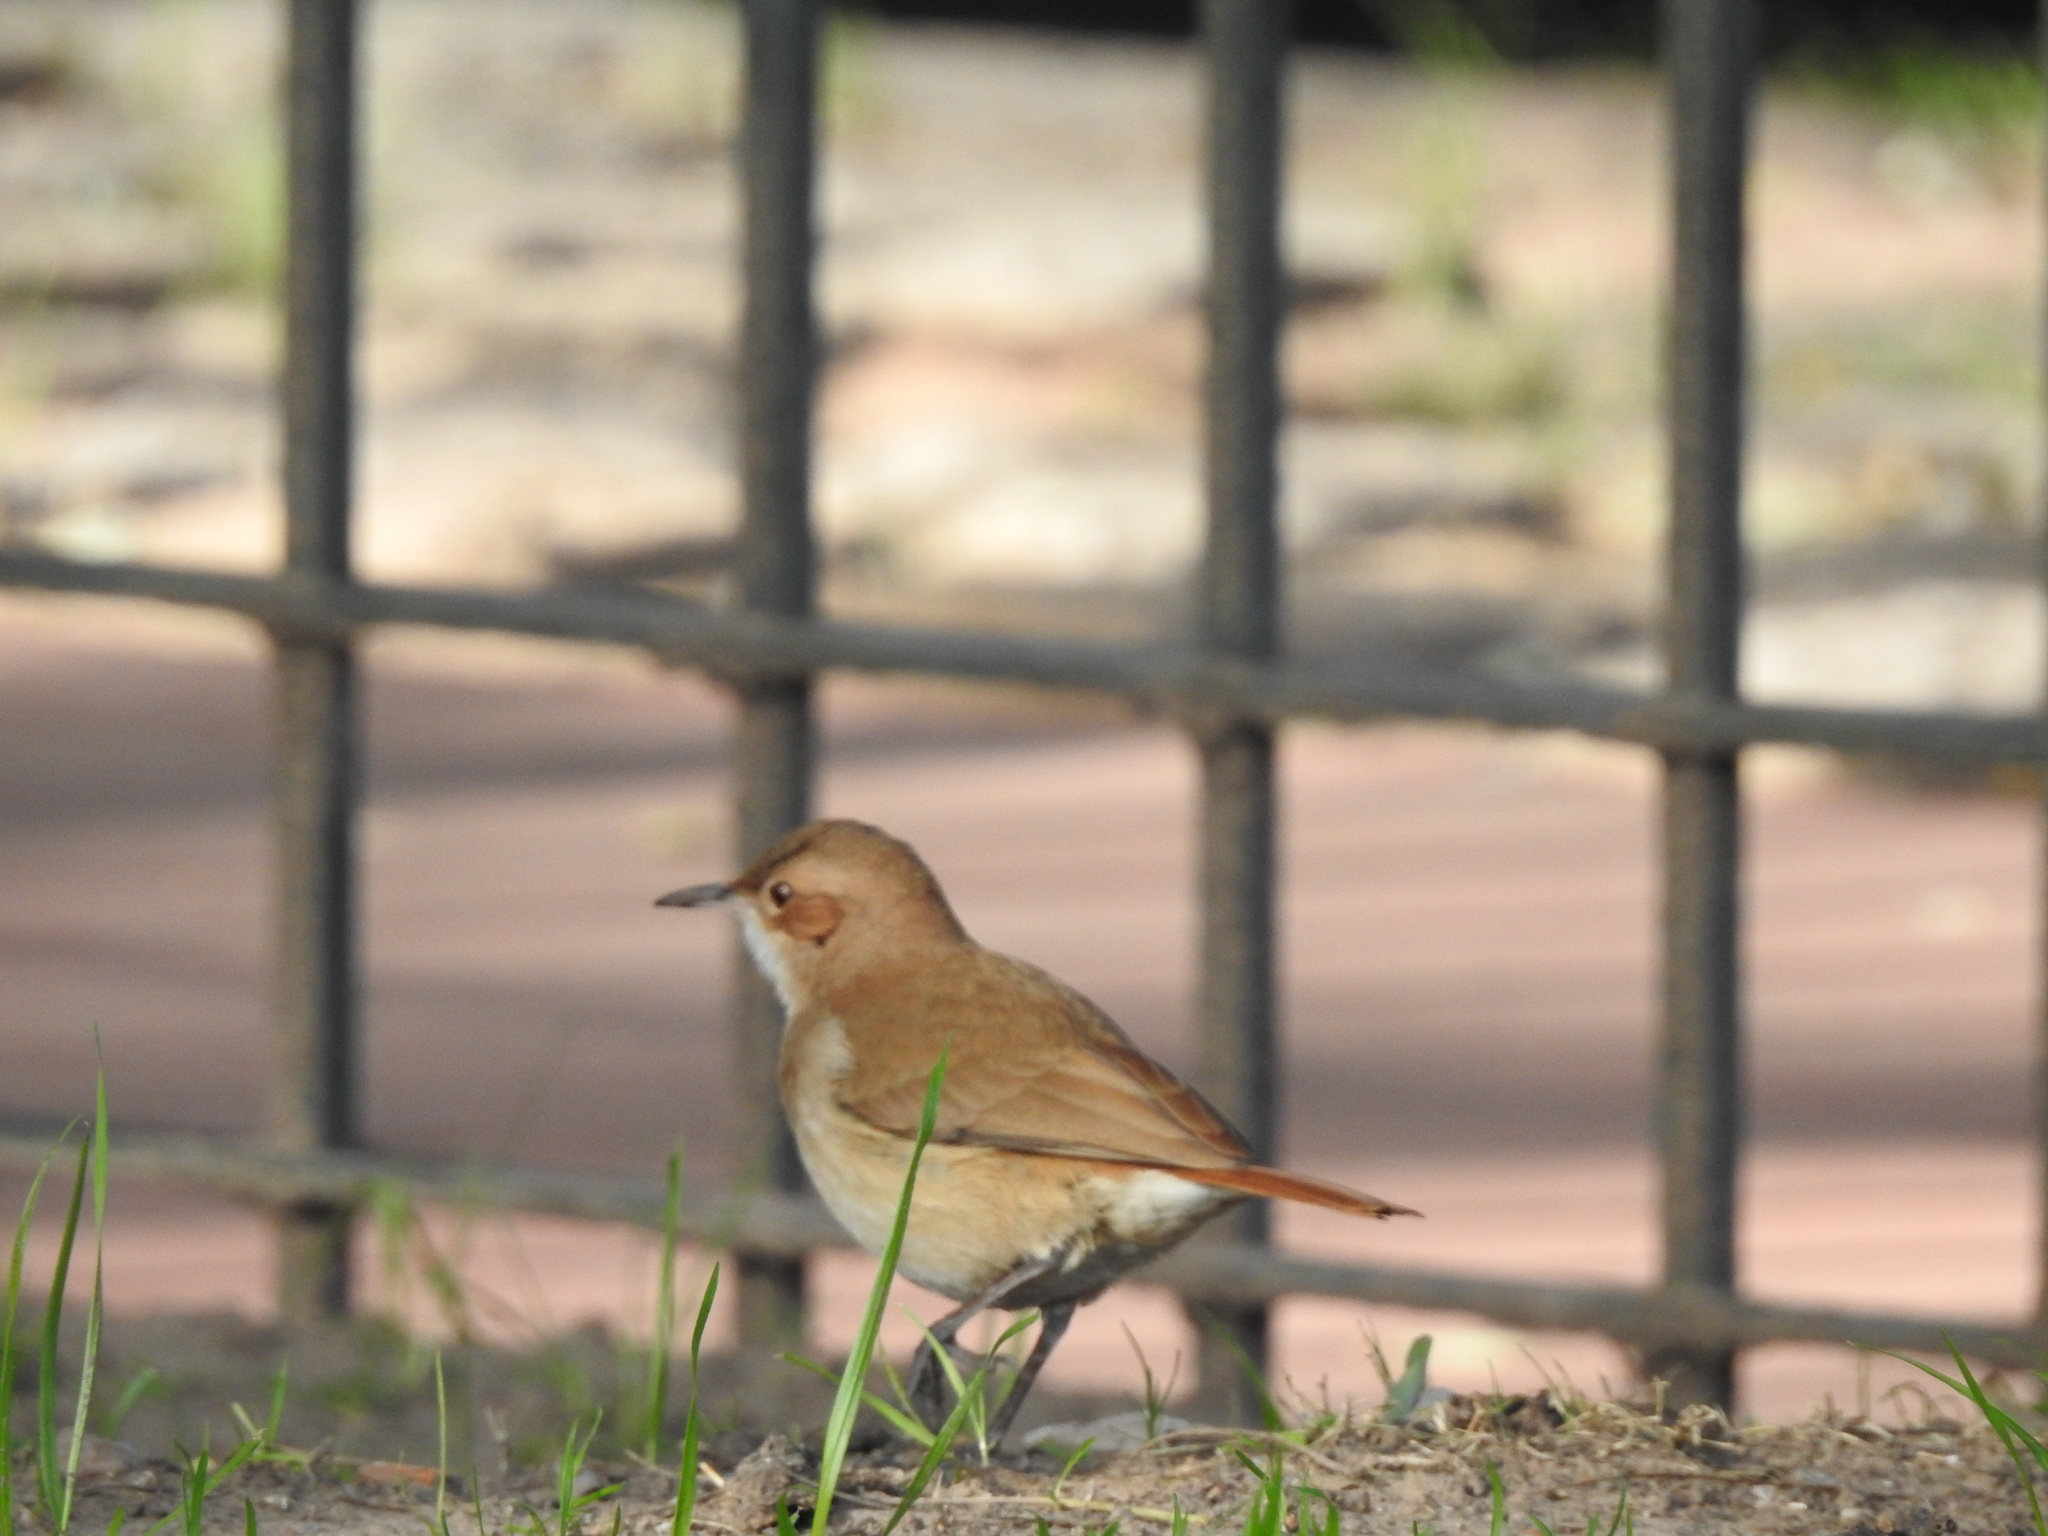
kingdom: Animalia
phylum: Chordata
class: Aves
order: Passeriformes
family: Furnariidae
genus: Furnarius
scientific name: Furnarius rufus
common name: Rufous hornero
